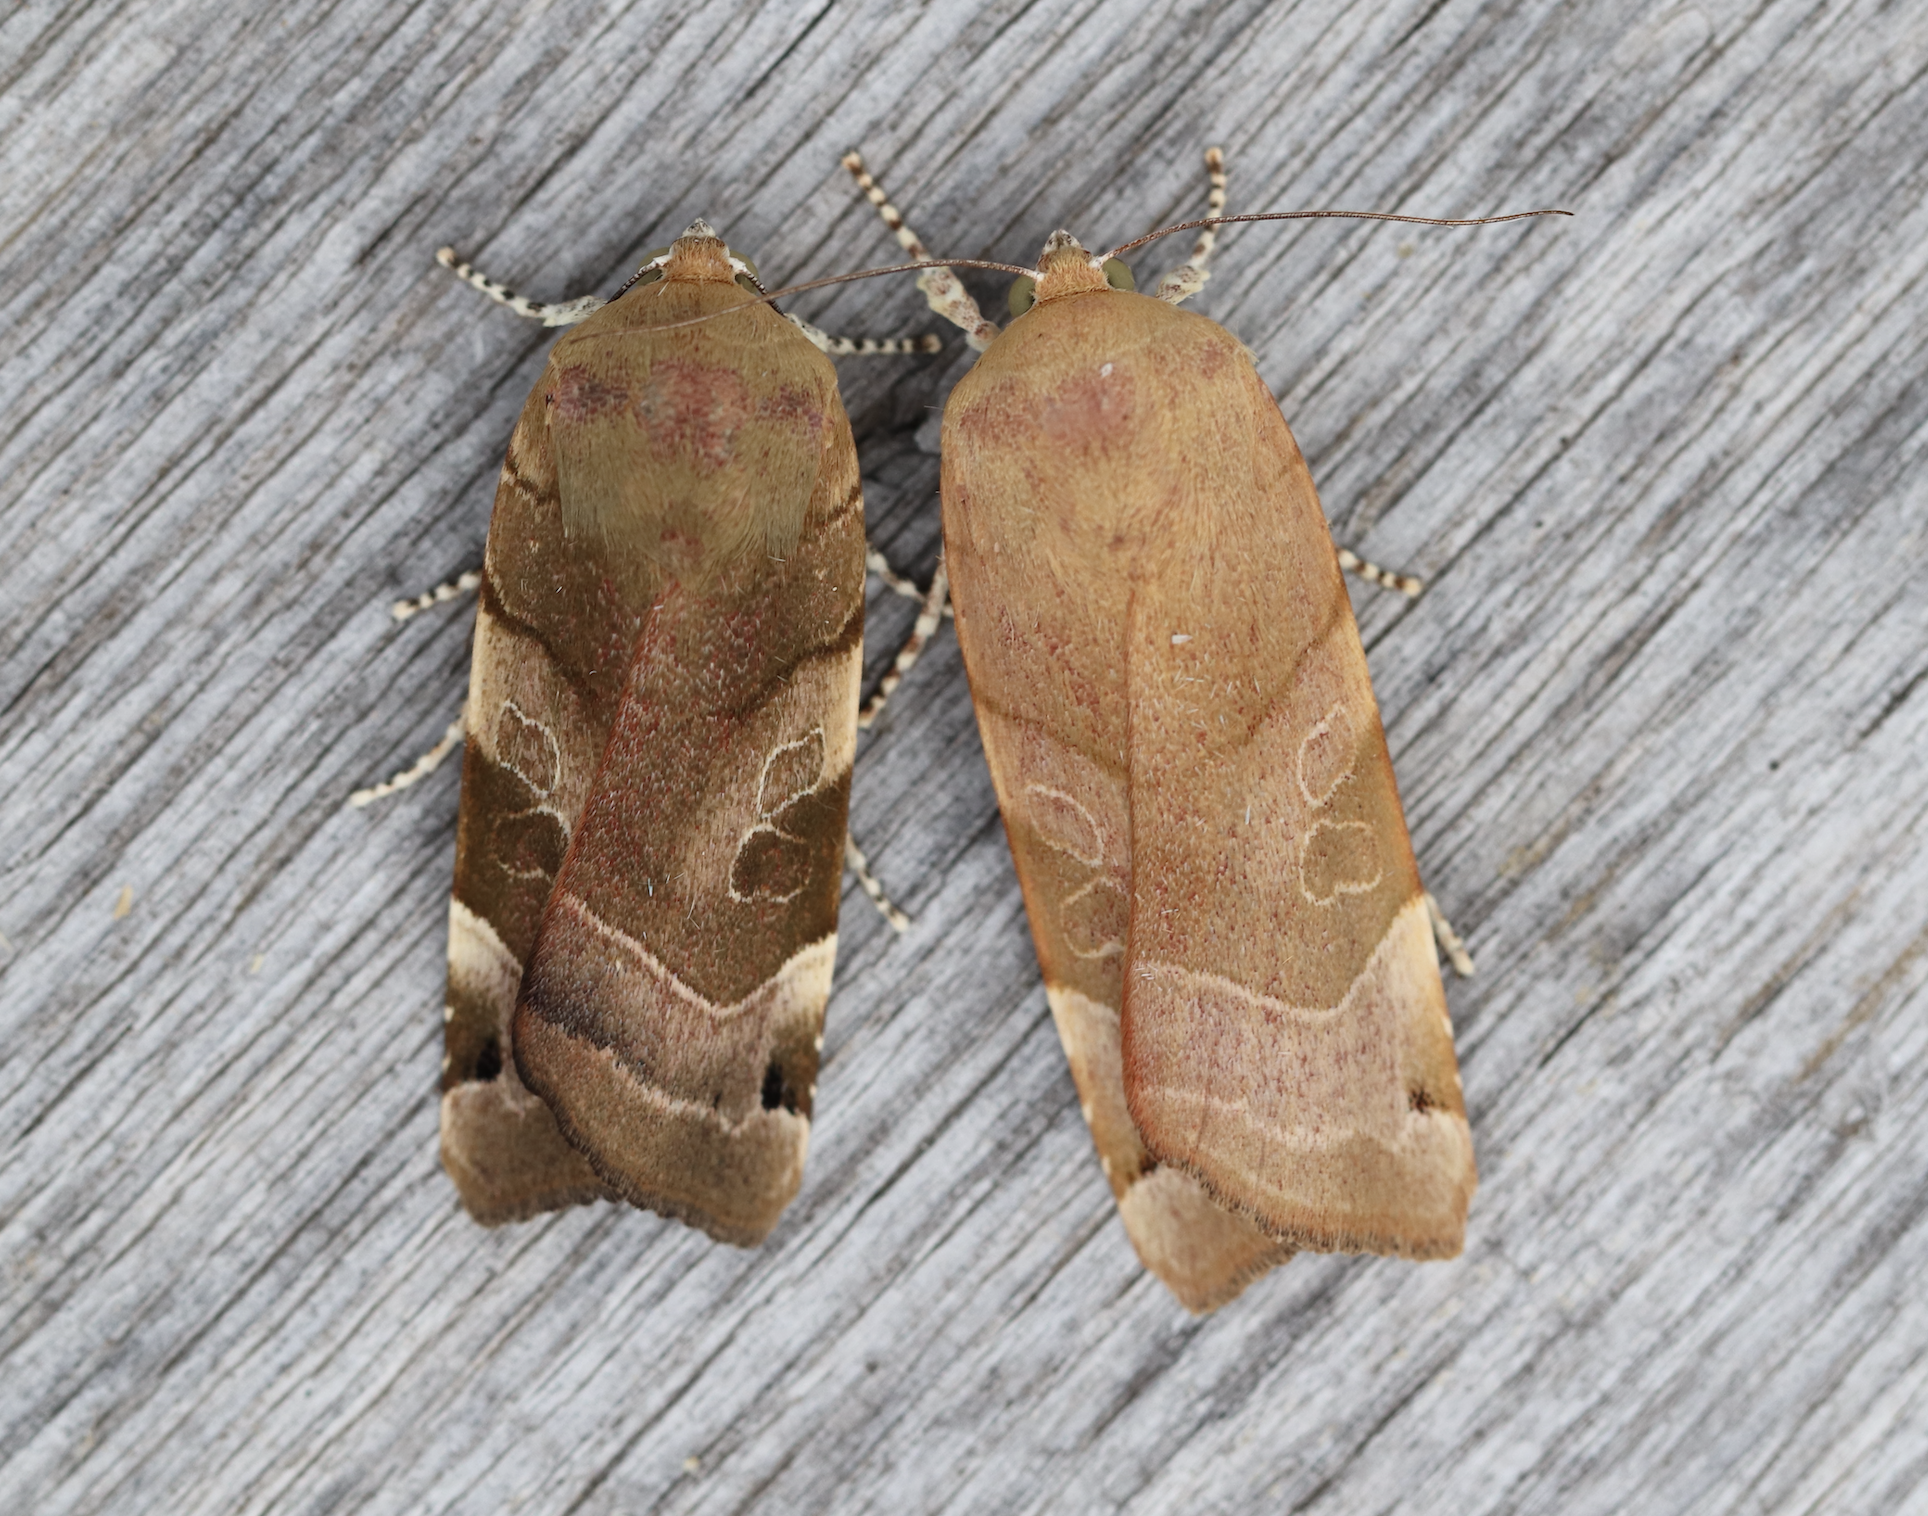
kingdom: Animalia
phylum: Arthropoda
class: Insecta
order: Lepidoptera
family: Noctuidae
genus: Noctua
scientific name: Noctua fimbriata
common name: Broad-bordered yellow underwing
